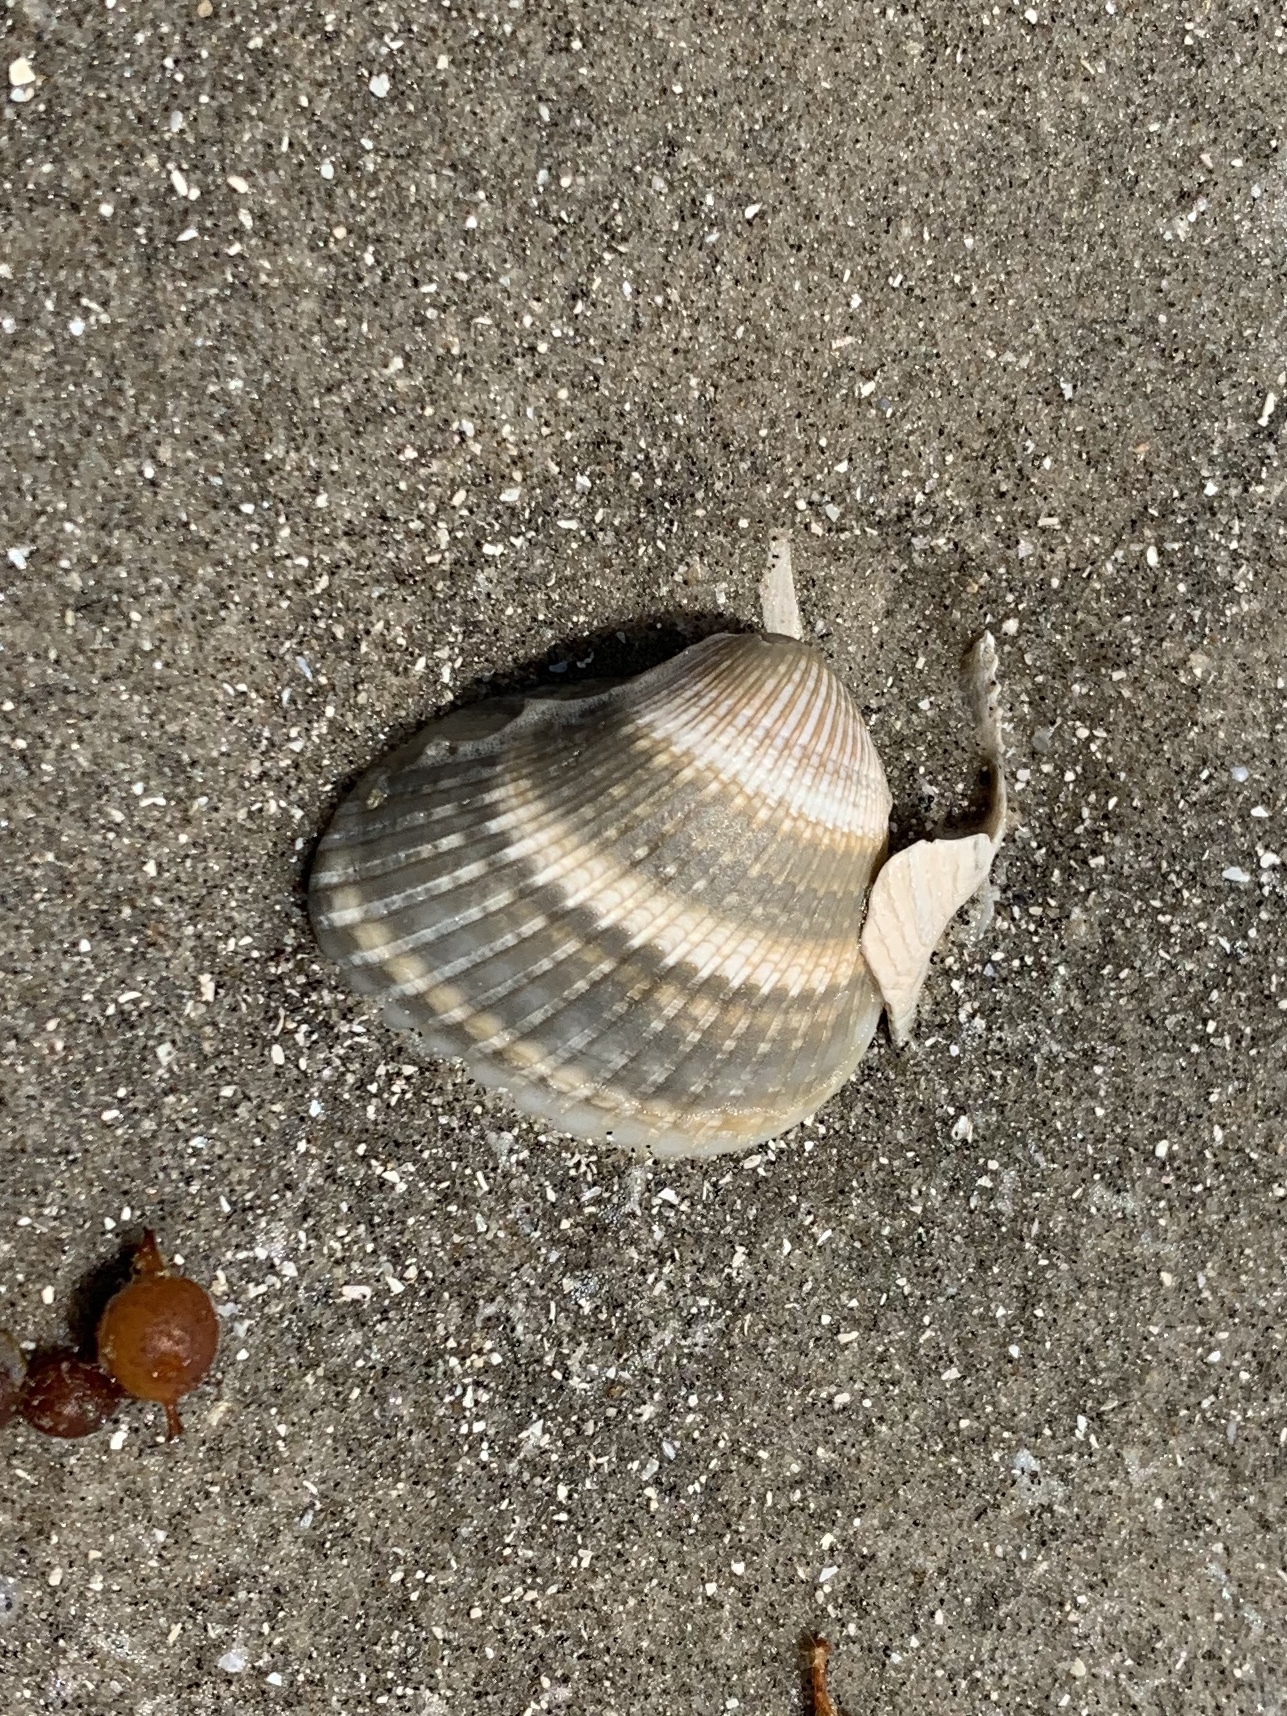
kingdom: Animalia
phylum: Mollusca
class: Bivalvia
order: Arcida
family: Noetiidae
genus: Noetia
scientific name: Noetia ponderosa
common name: Ponderous ark
